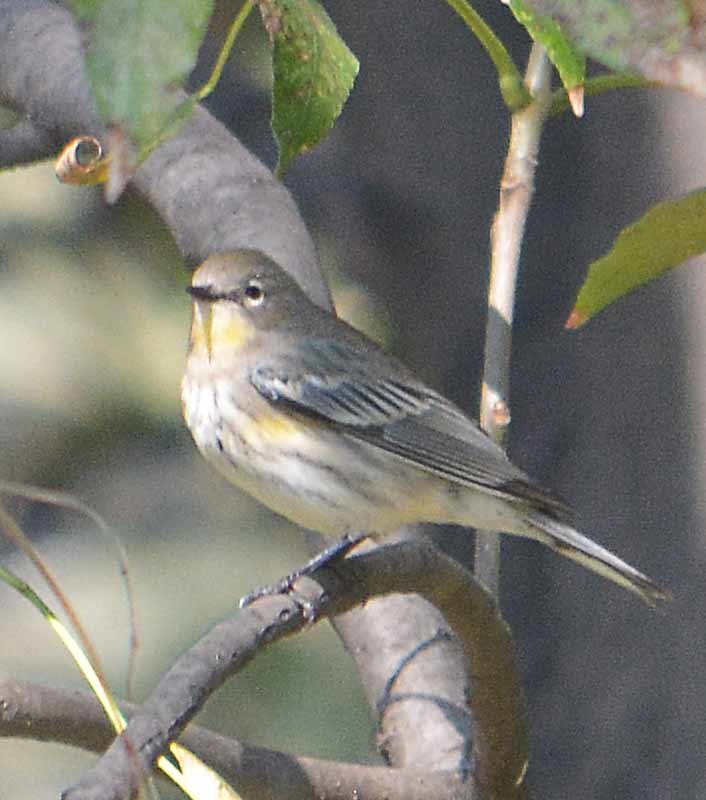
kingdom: Animalia
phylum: Chordata
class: Aves
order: Passeriformes
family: Parulidae
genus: Setophaga
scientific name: Setophaga coronata
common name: Myrtle warbler
